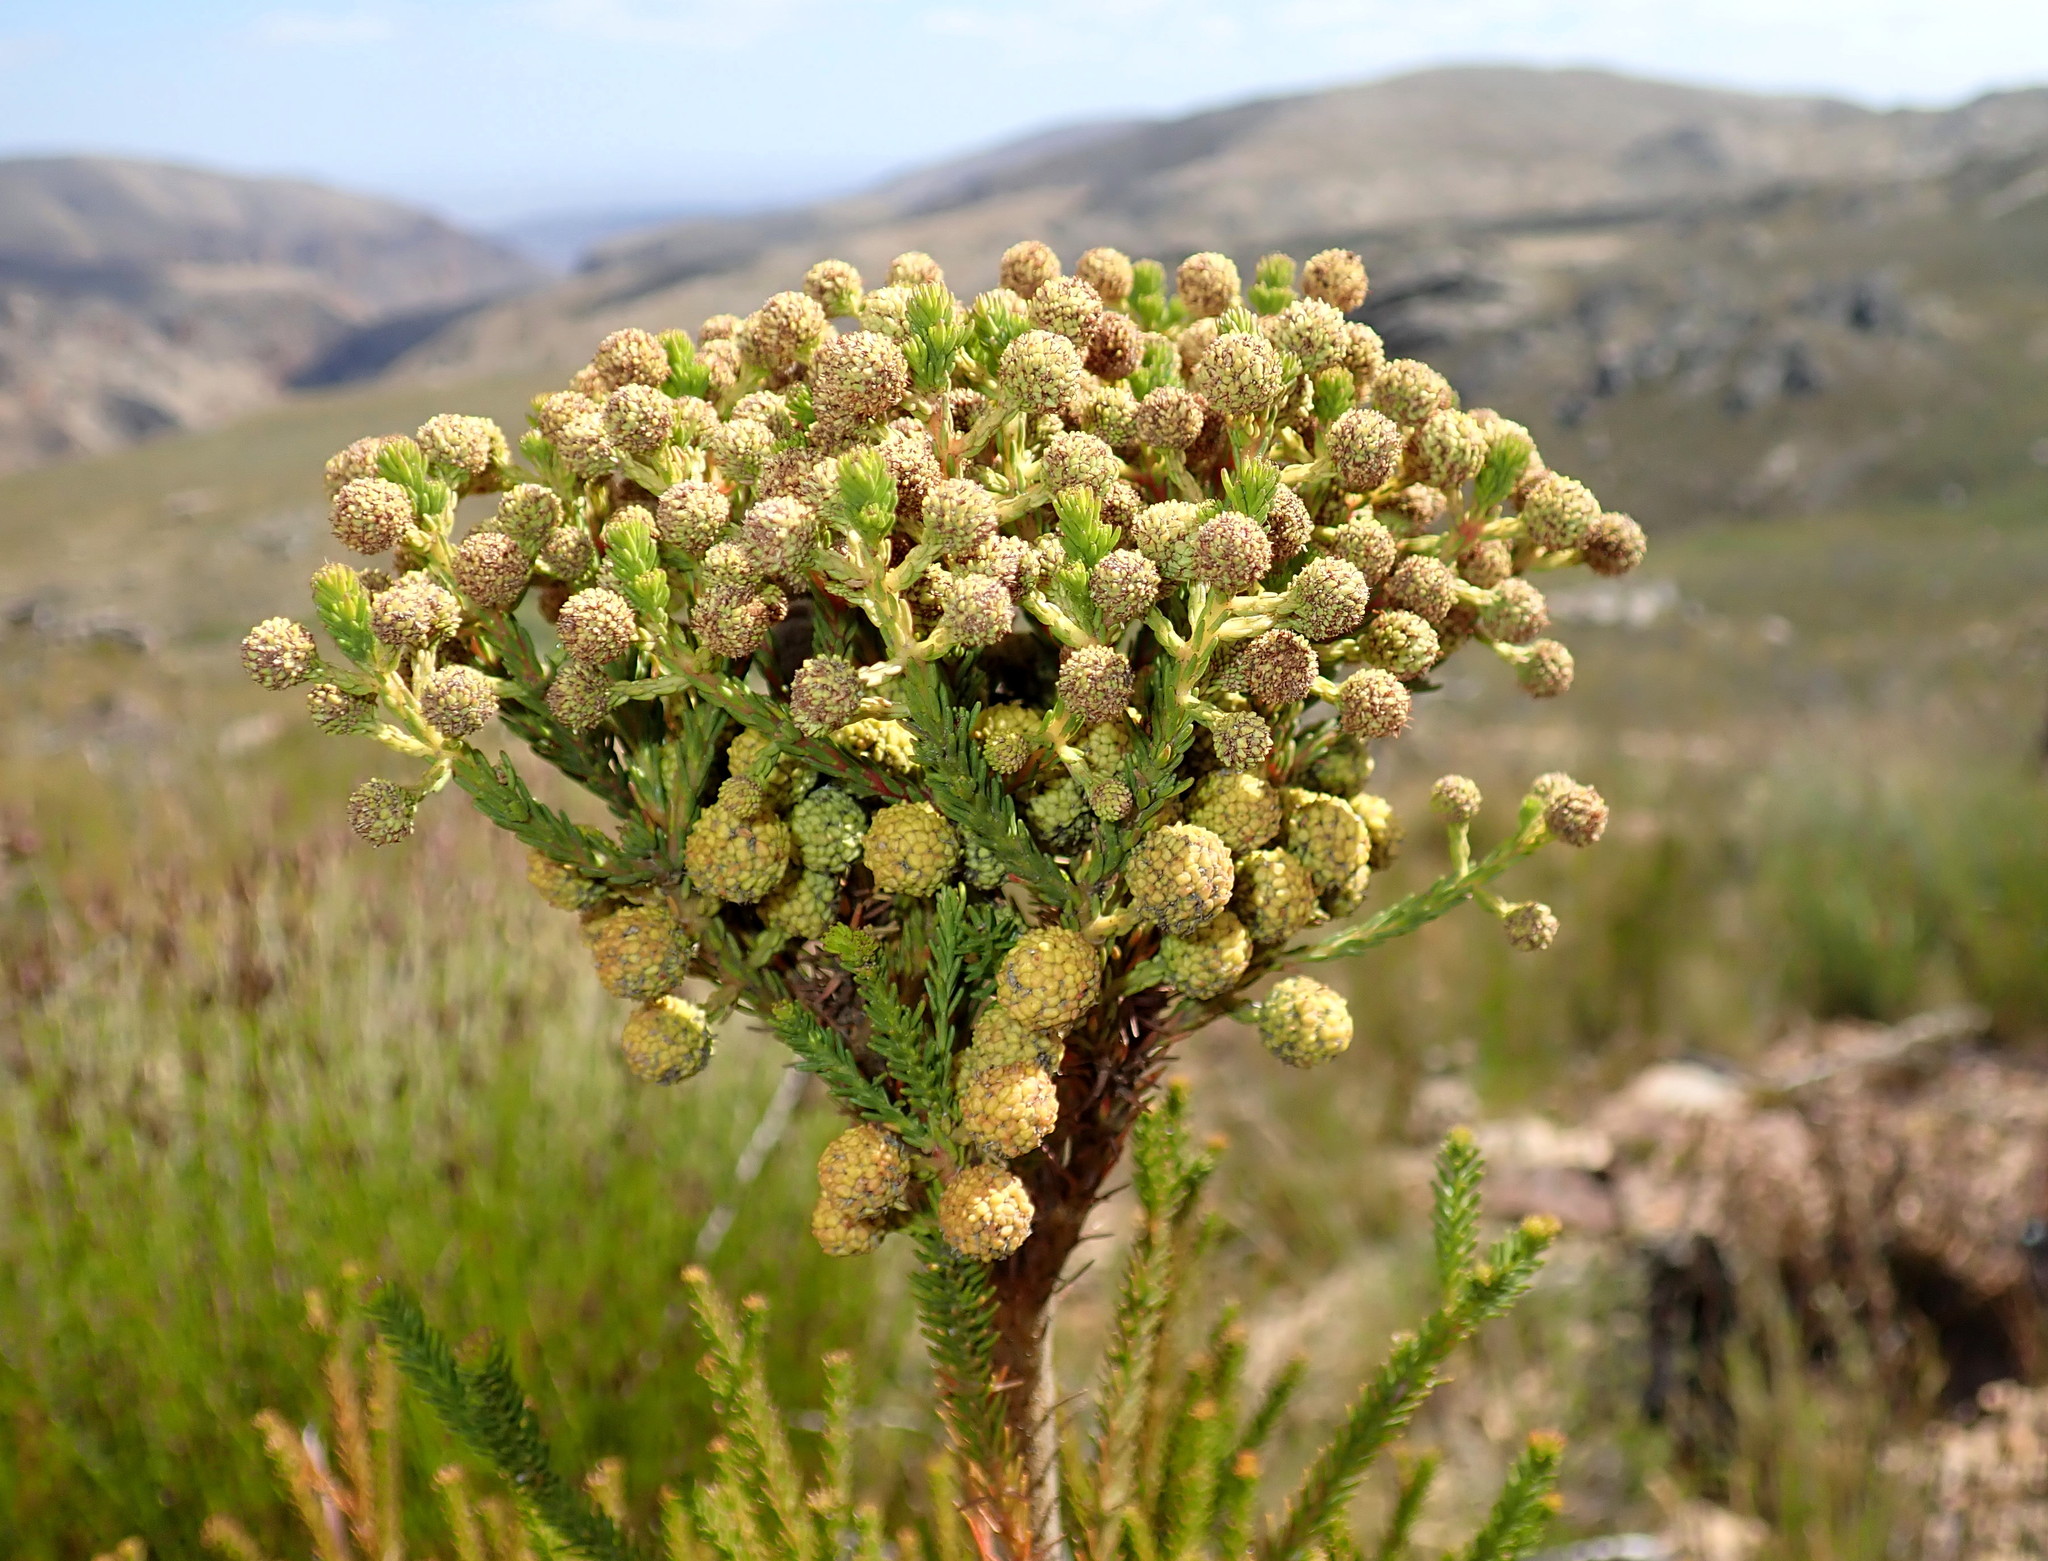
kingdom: Plantae
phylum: Tracheophyta
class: Magnoliopsida
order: Bruniales
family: Bruniaceae
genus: Berzelia
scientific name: Berzelia intermedia
